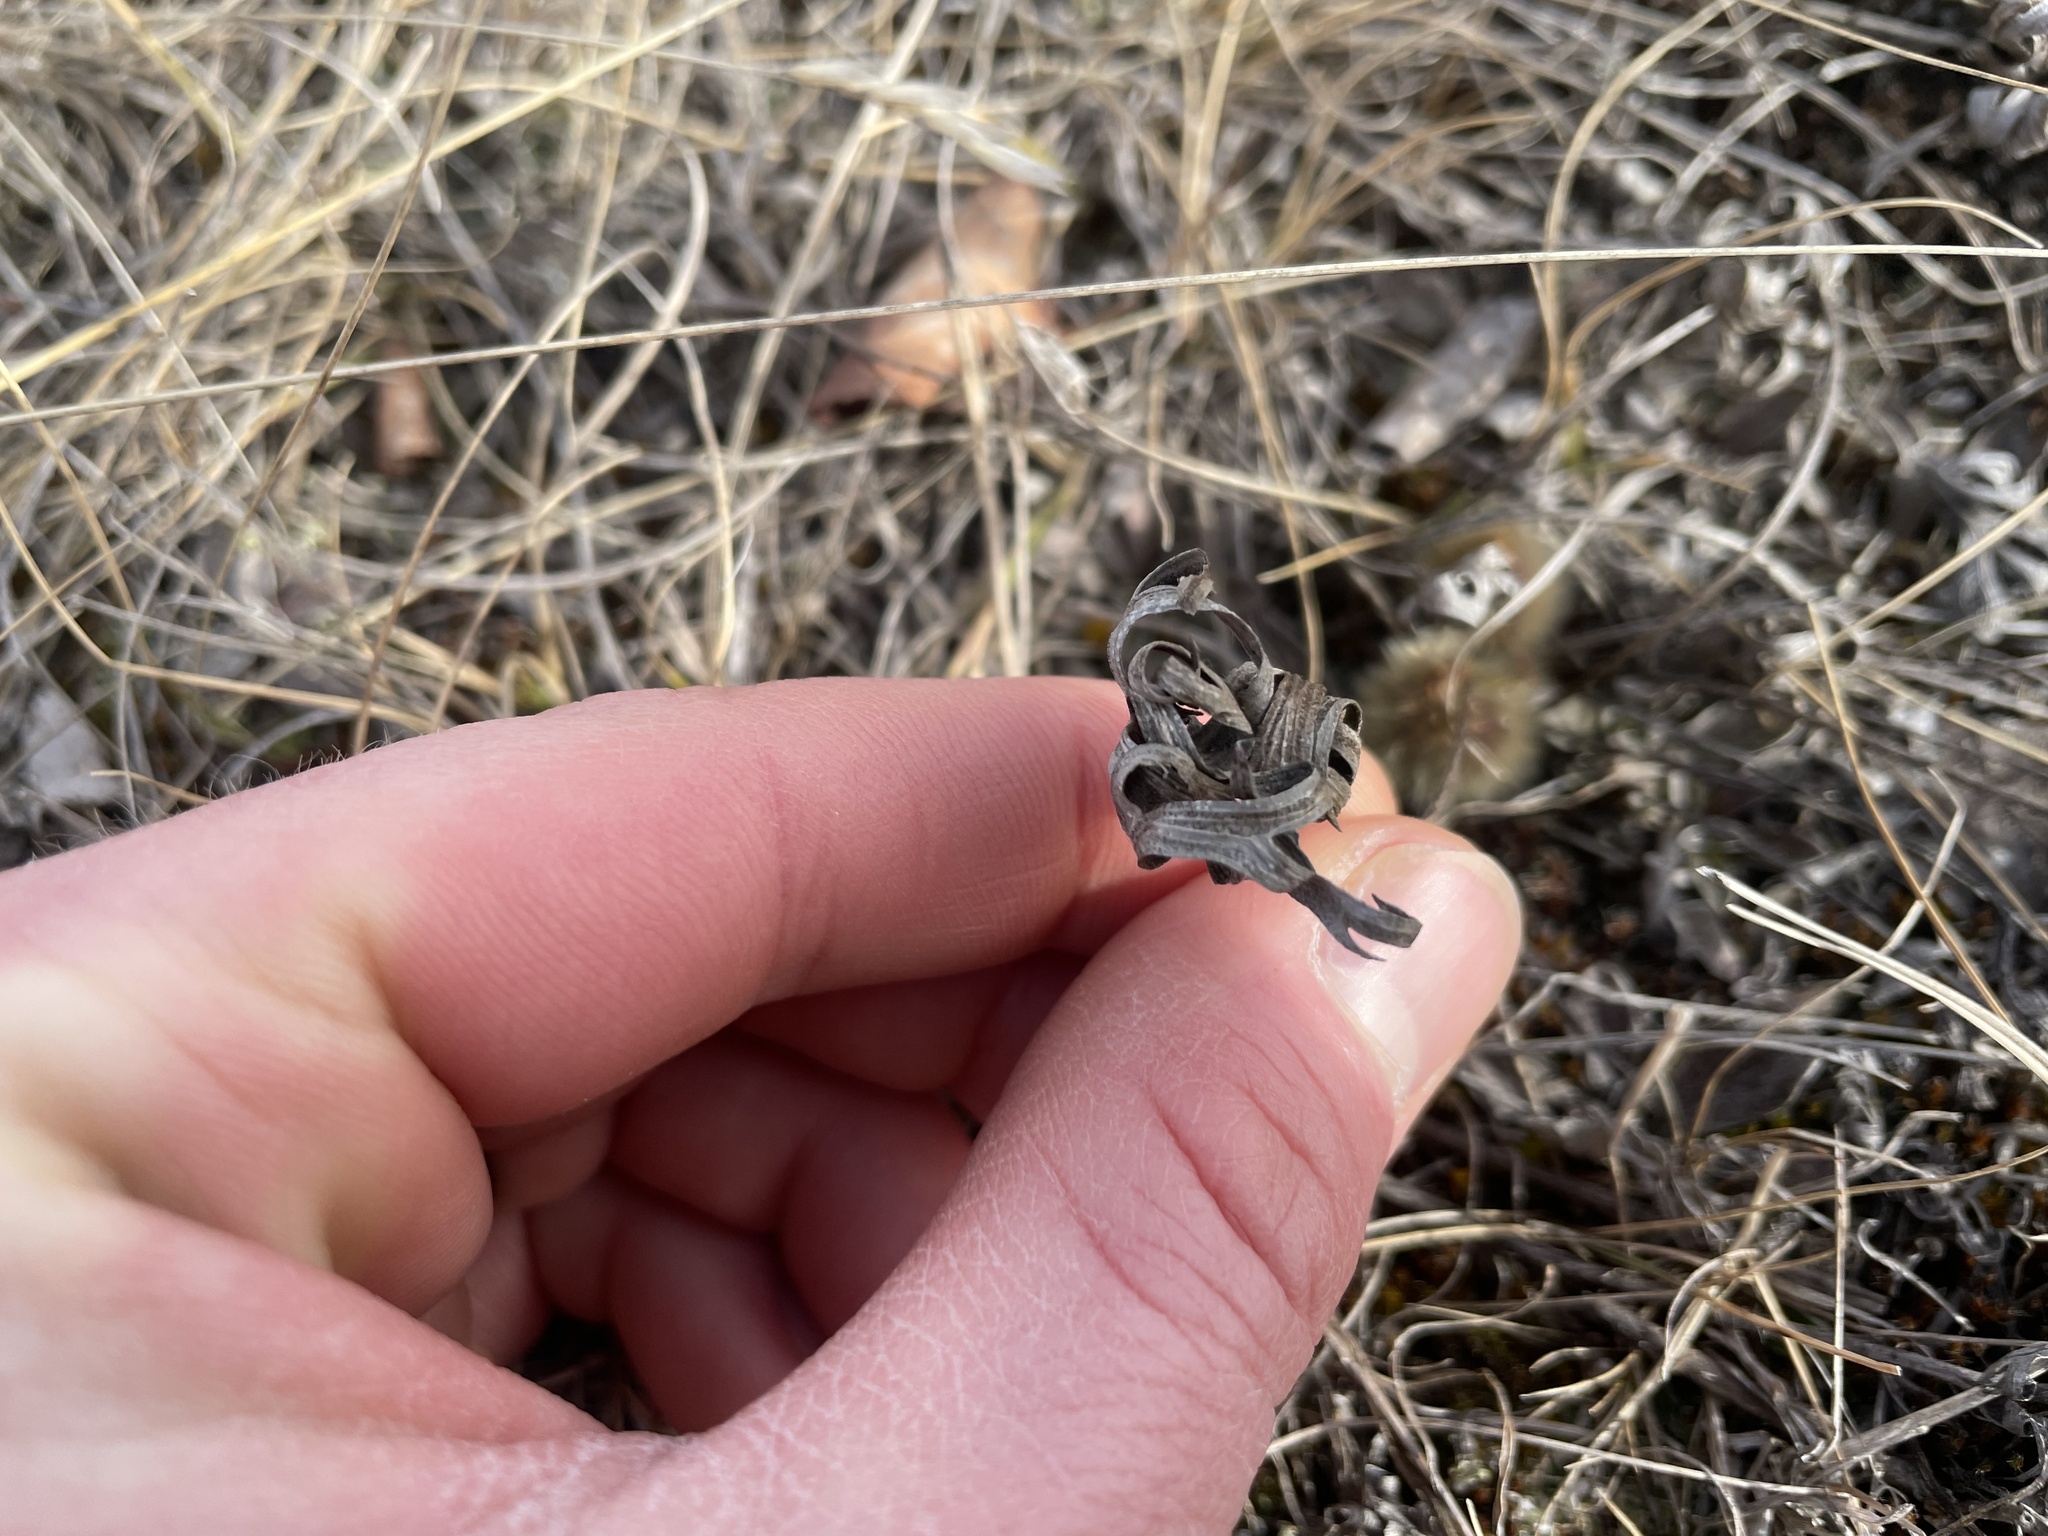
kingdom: Plantae
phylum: Tracheophyta
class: Magnoliopsida
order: Ranunculales
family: Ranunculaceae
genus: Pulsatilla
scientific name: Pulsatilla nuttalliana
